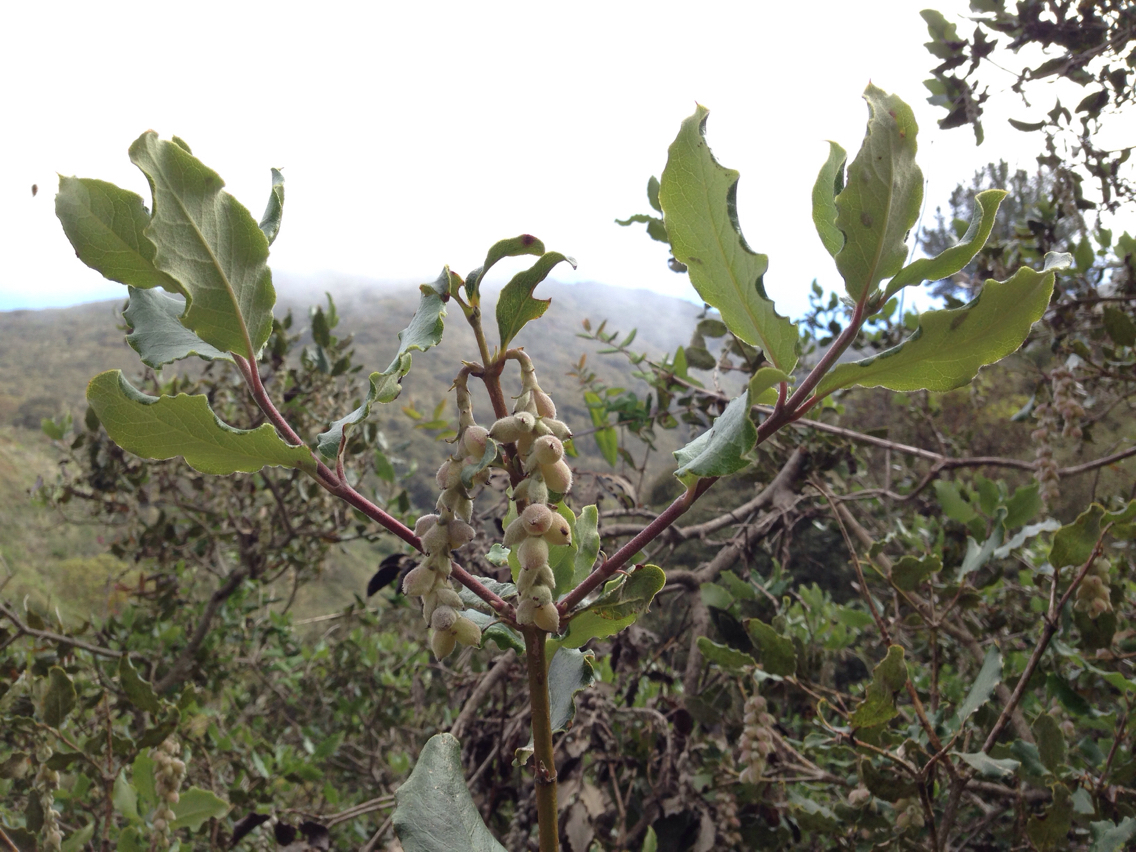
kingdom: Plantae
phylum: Tracheophyta
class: Magnoliopsida
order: Garryales
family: Garryaceae
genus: Garrya
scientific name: Garrya elliptica
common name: Silk-tassel
